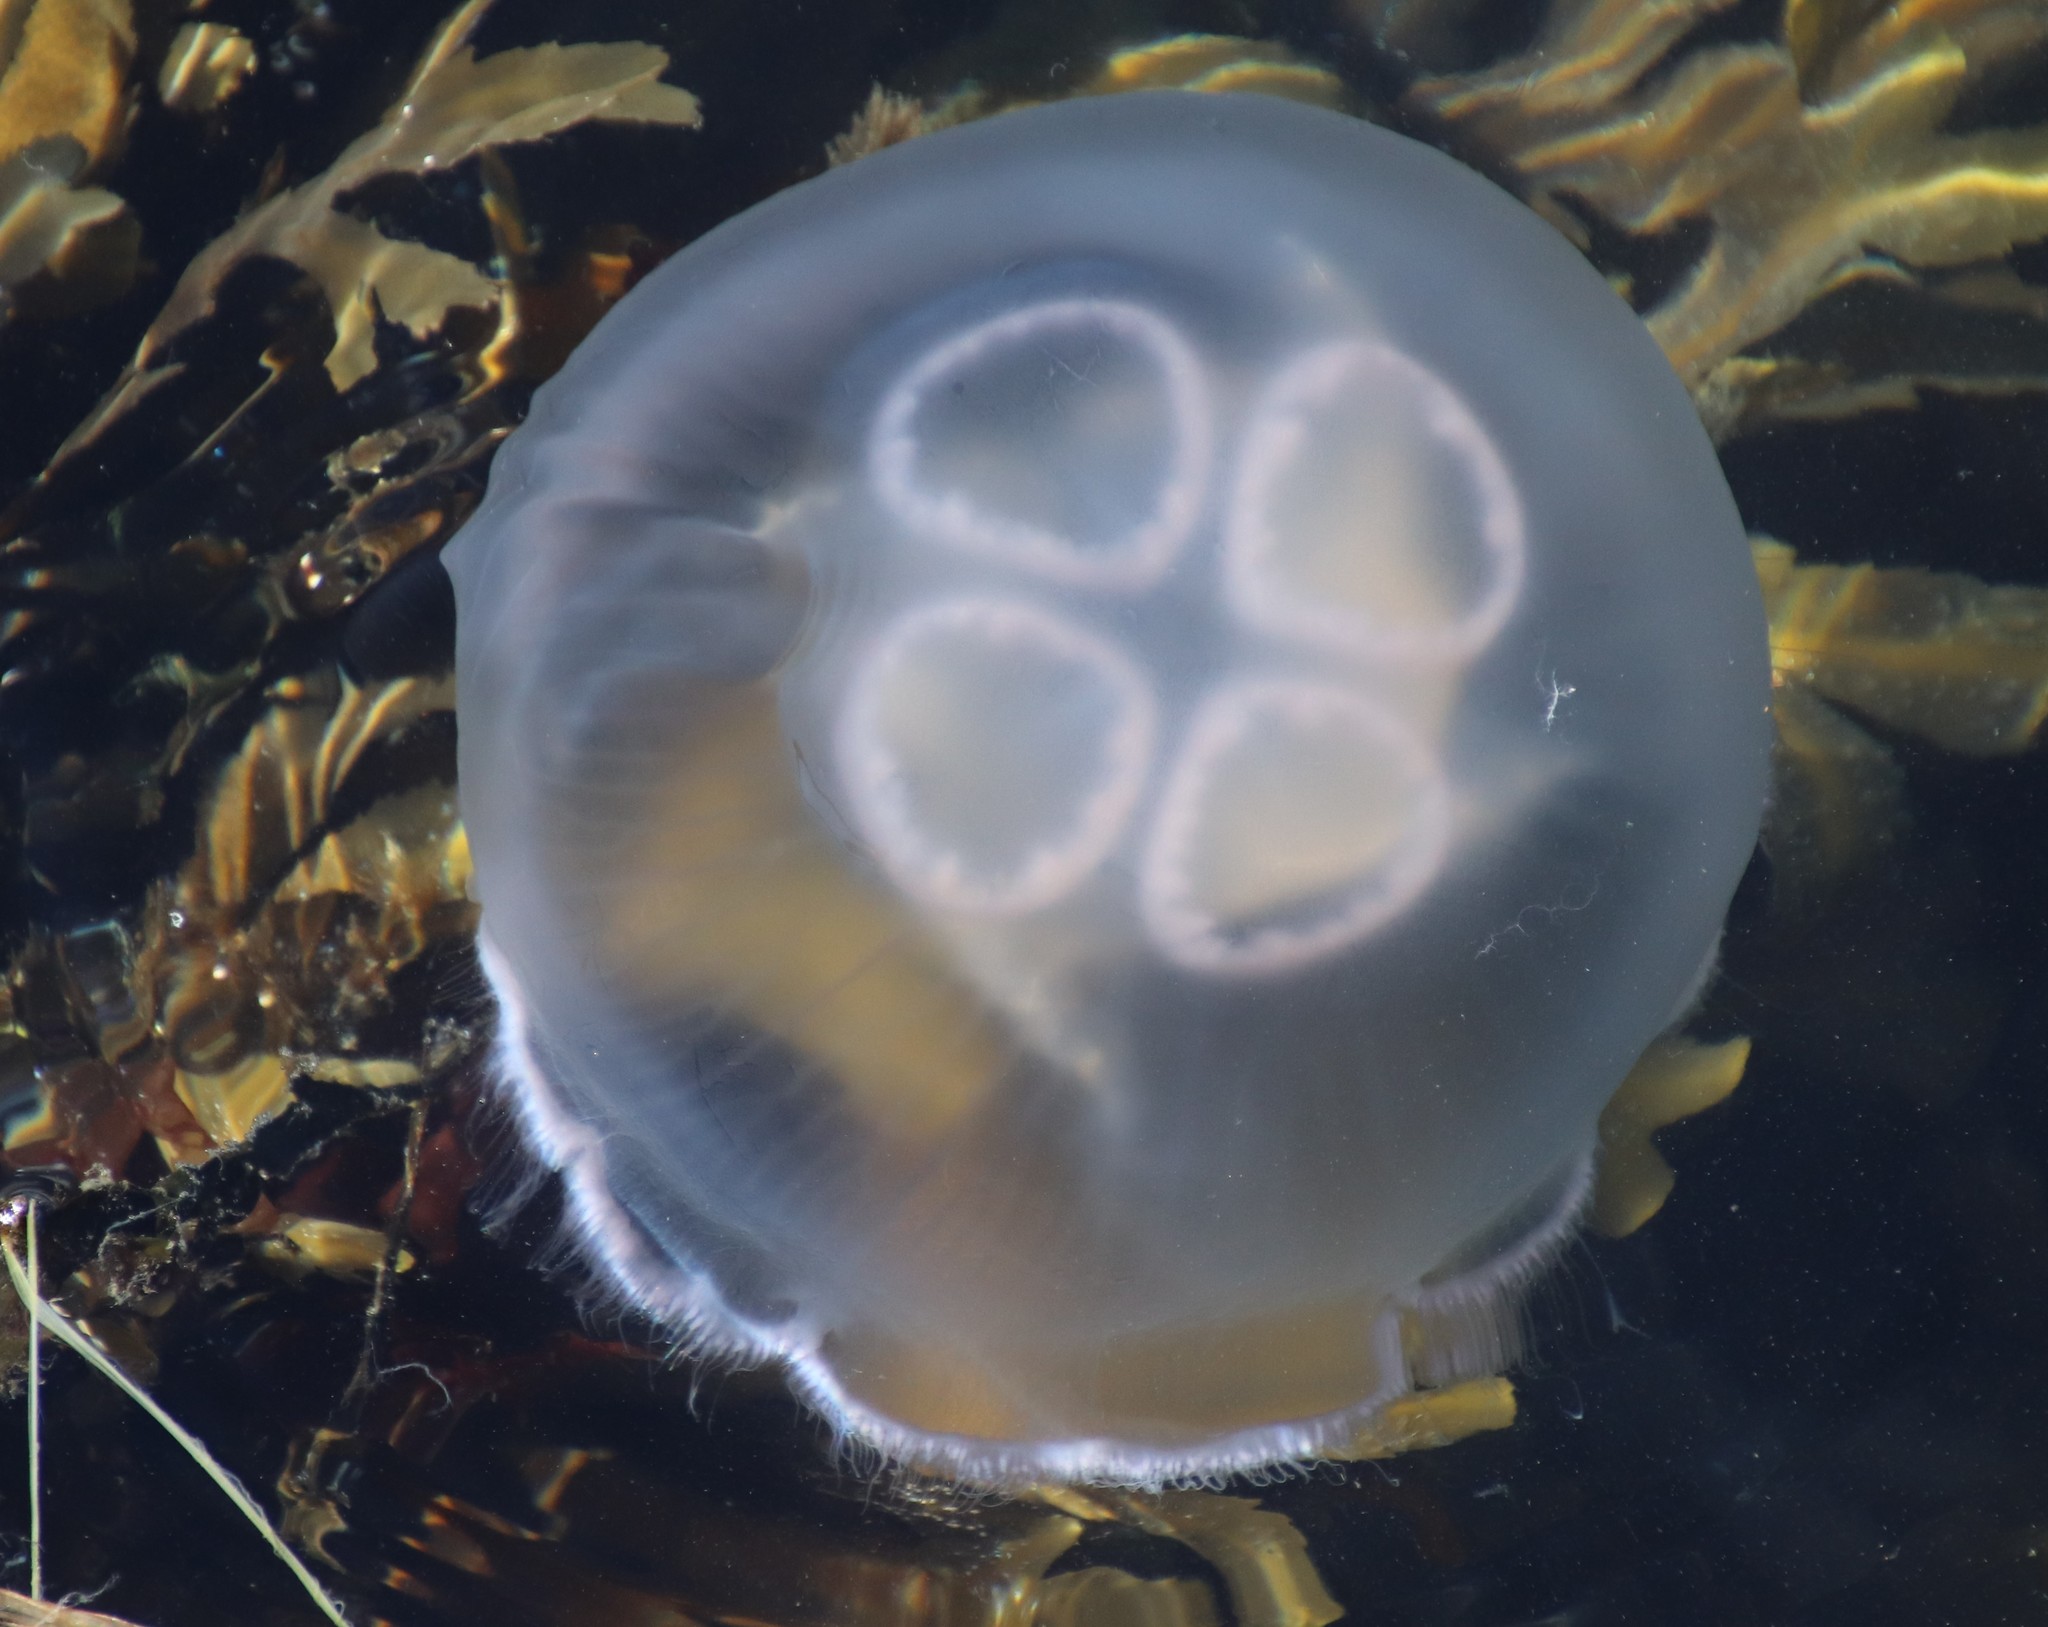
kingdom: Animalia
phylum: Cnidaria
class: Scyphozoa
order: Semaeostomeae
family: Ulmaridae
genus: Aurelia
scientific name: Aurelia aurita
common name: Moon jellyfish
